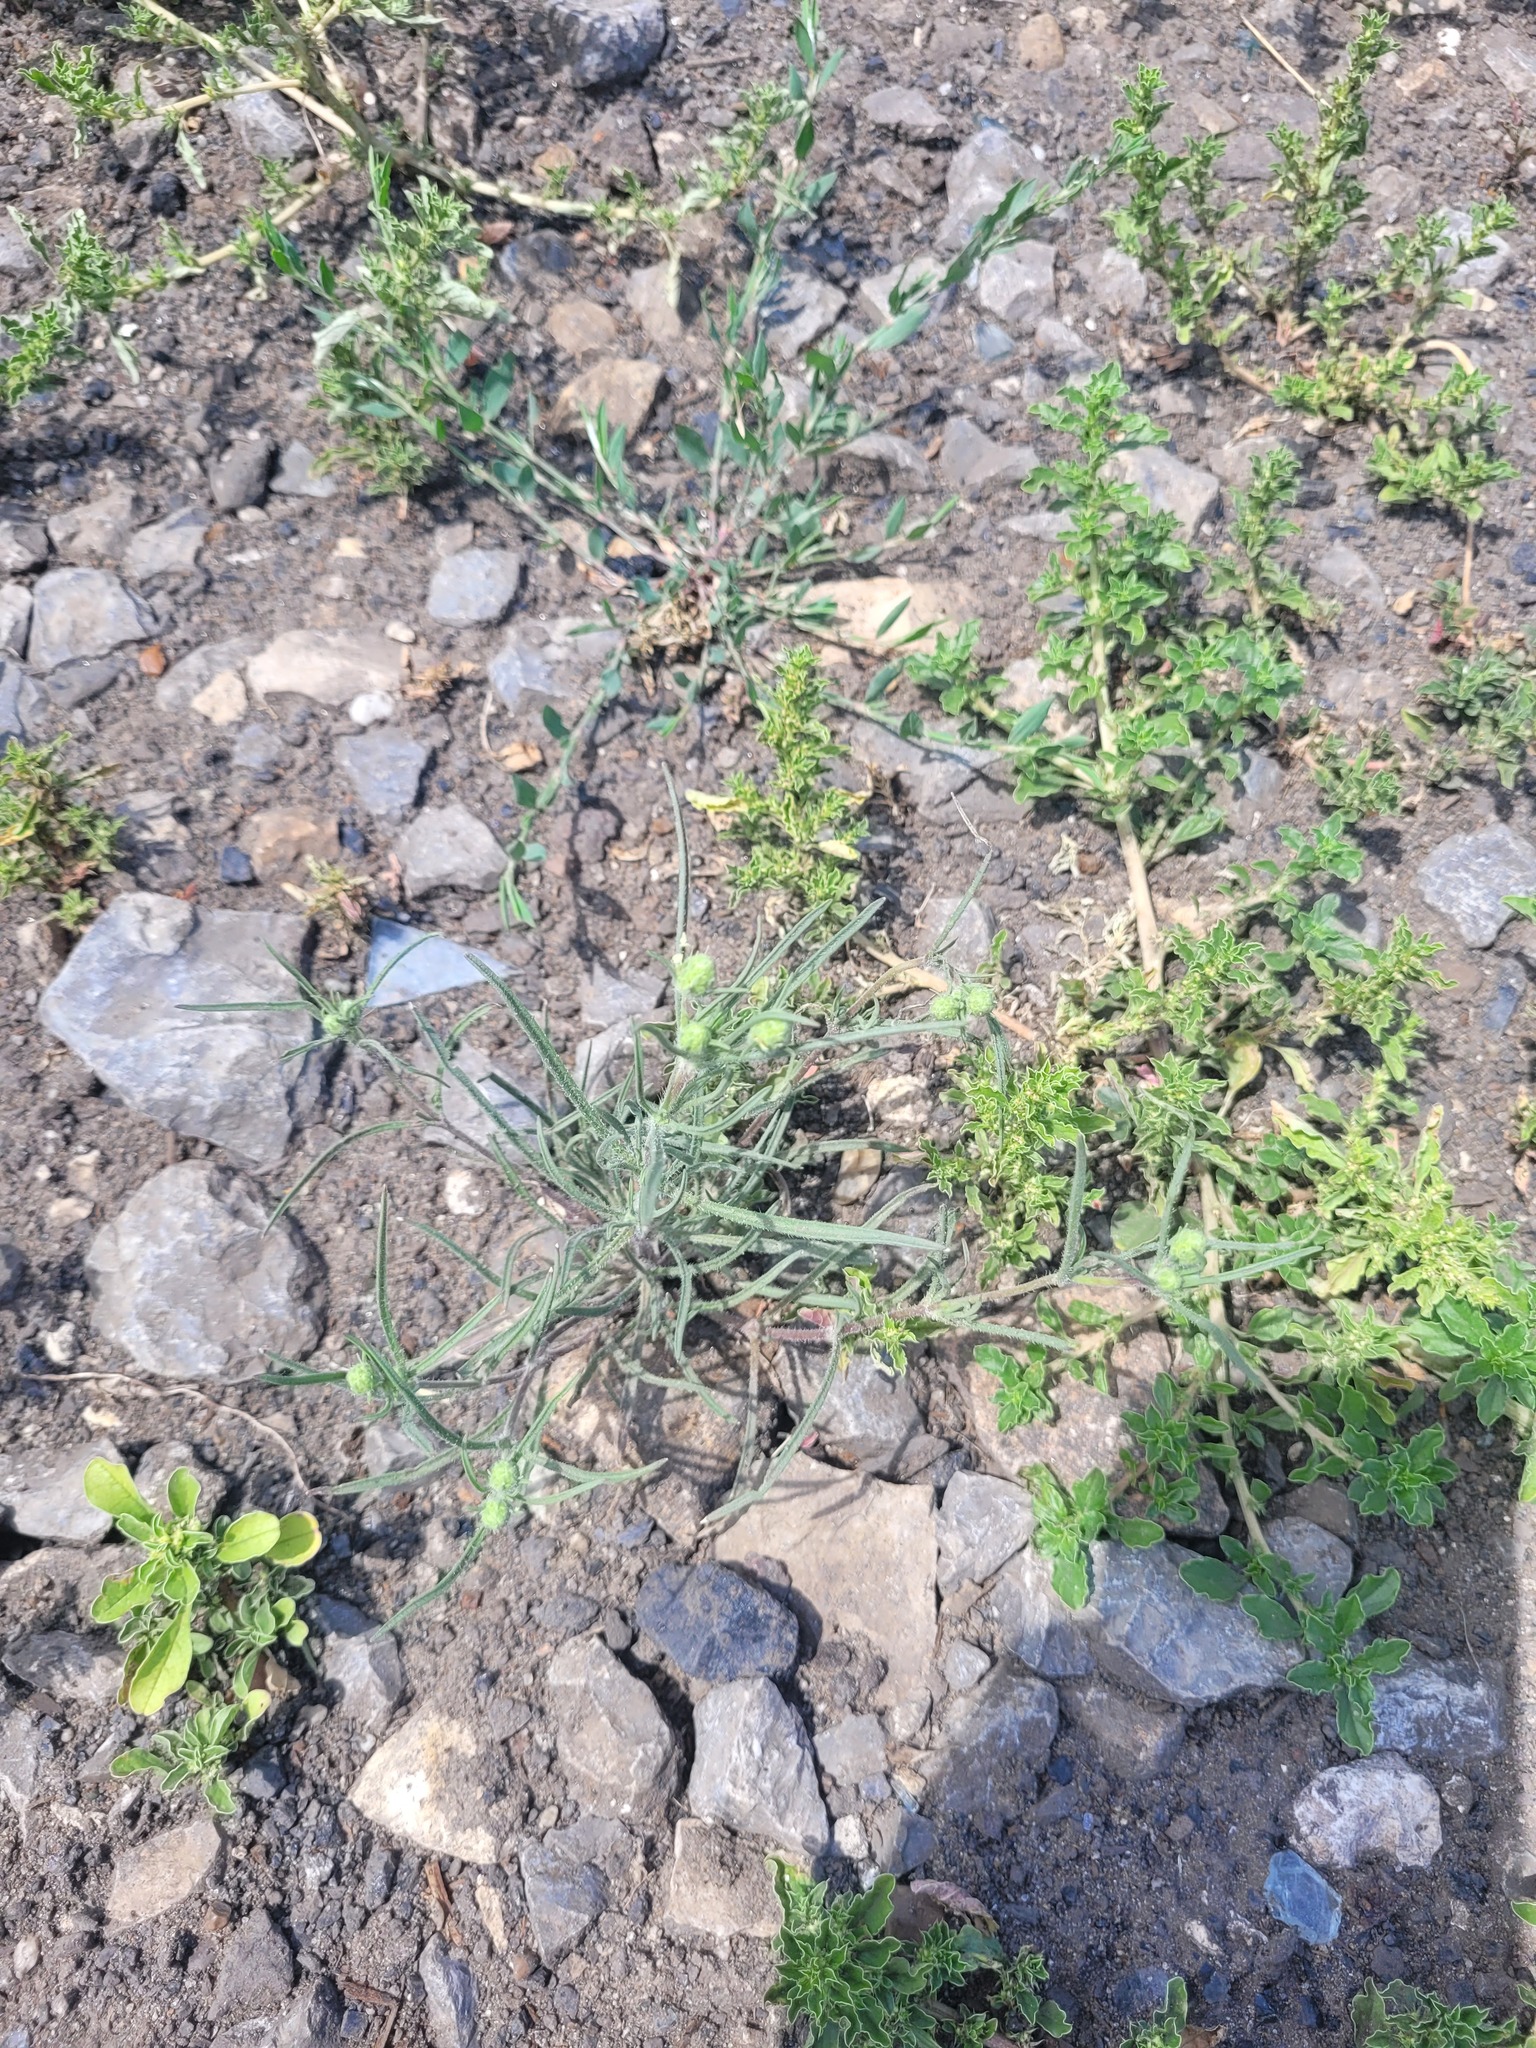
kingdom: Plantae
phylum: Tracheophyta
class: Magnoliopsida
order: Lamiales
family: Plantaginaceae
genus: Plantago
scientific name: Plantago arenaria
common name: Branched plantain
